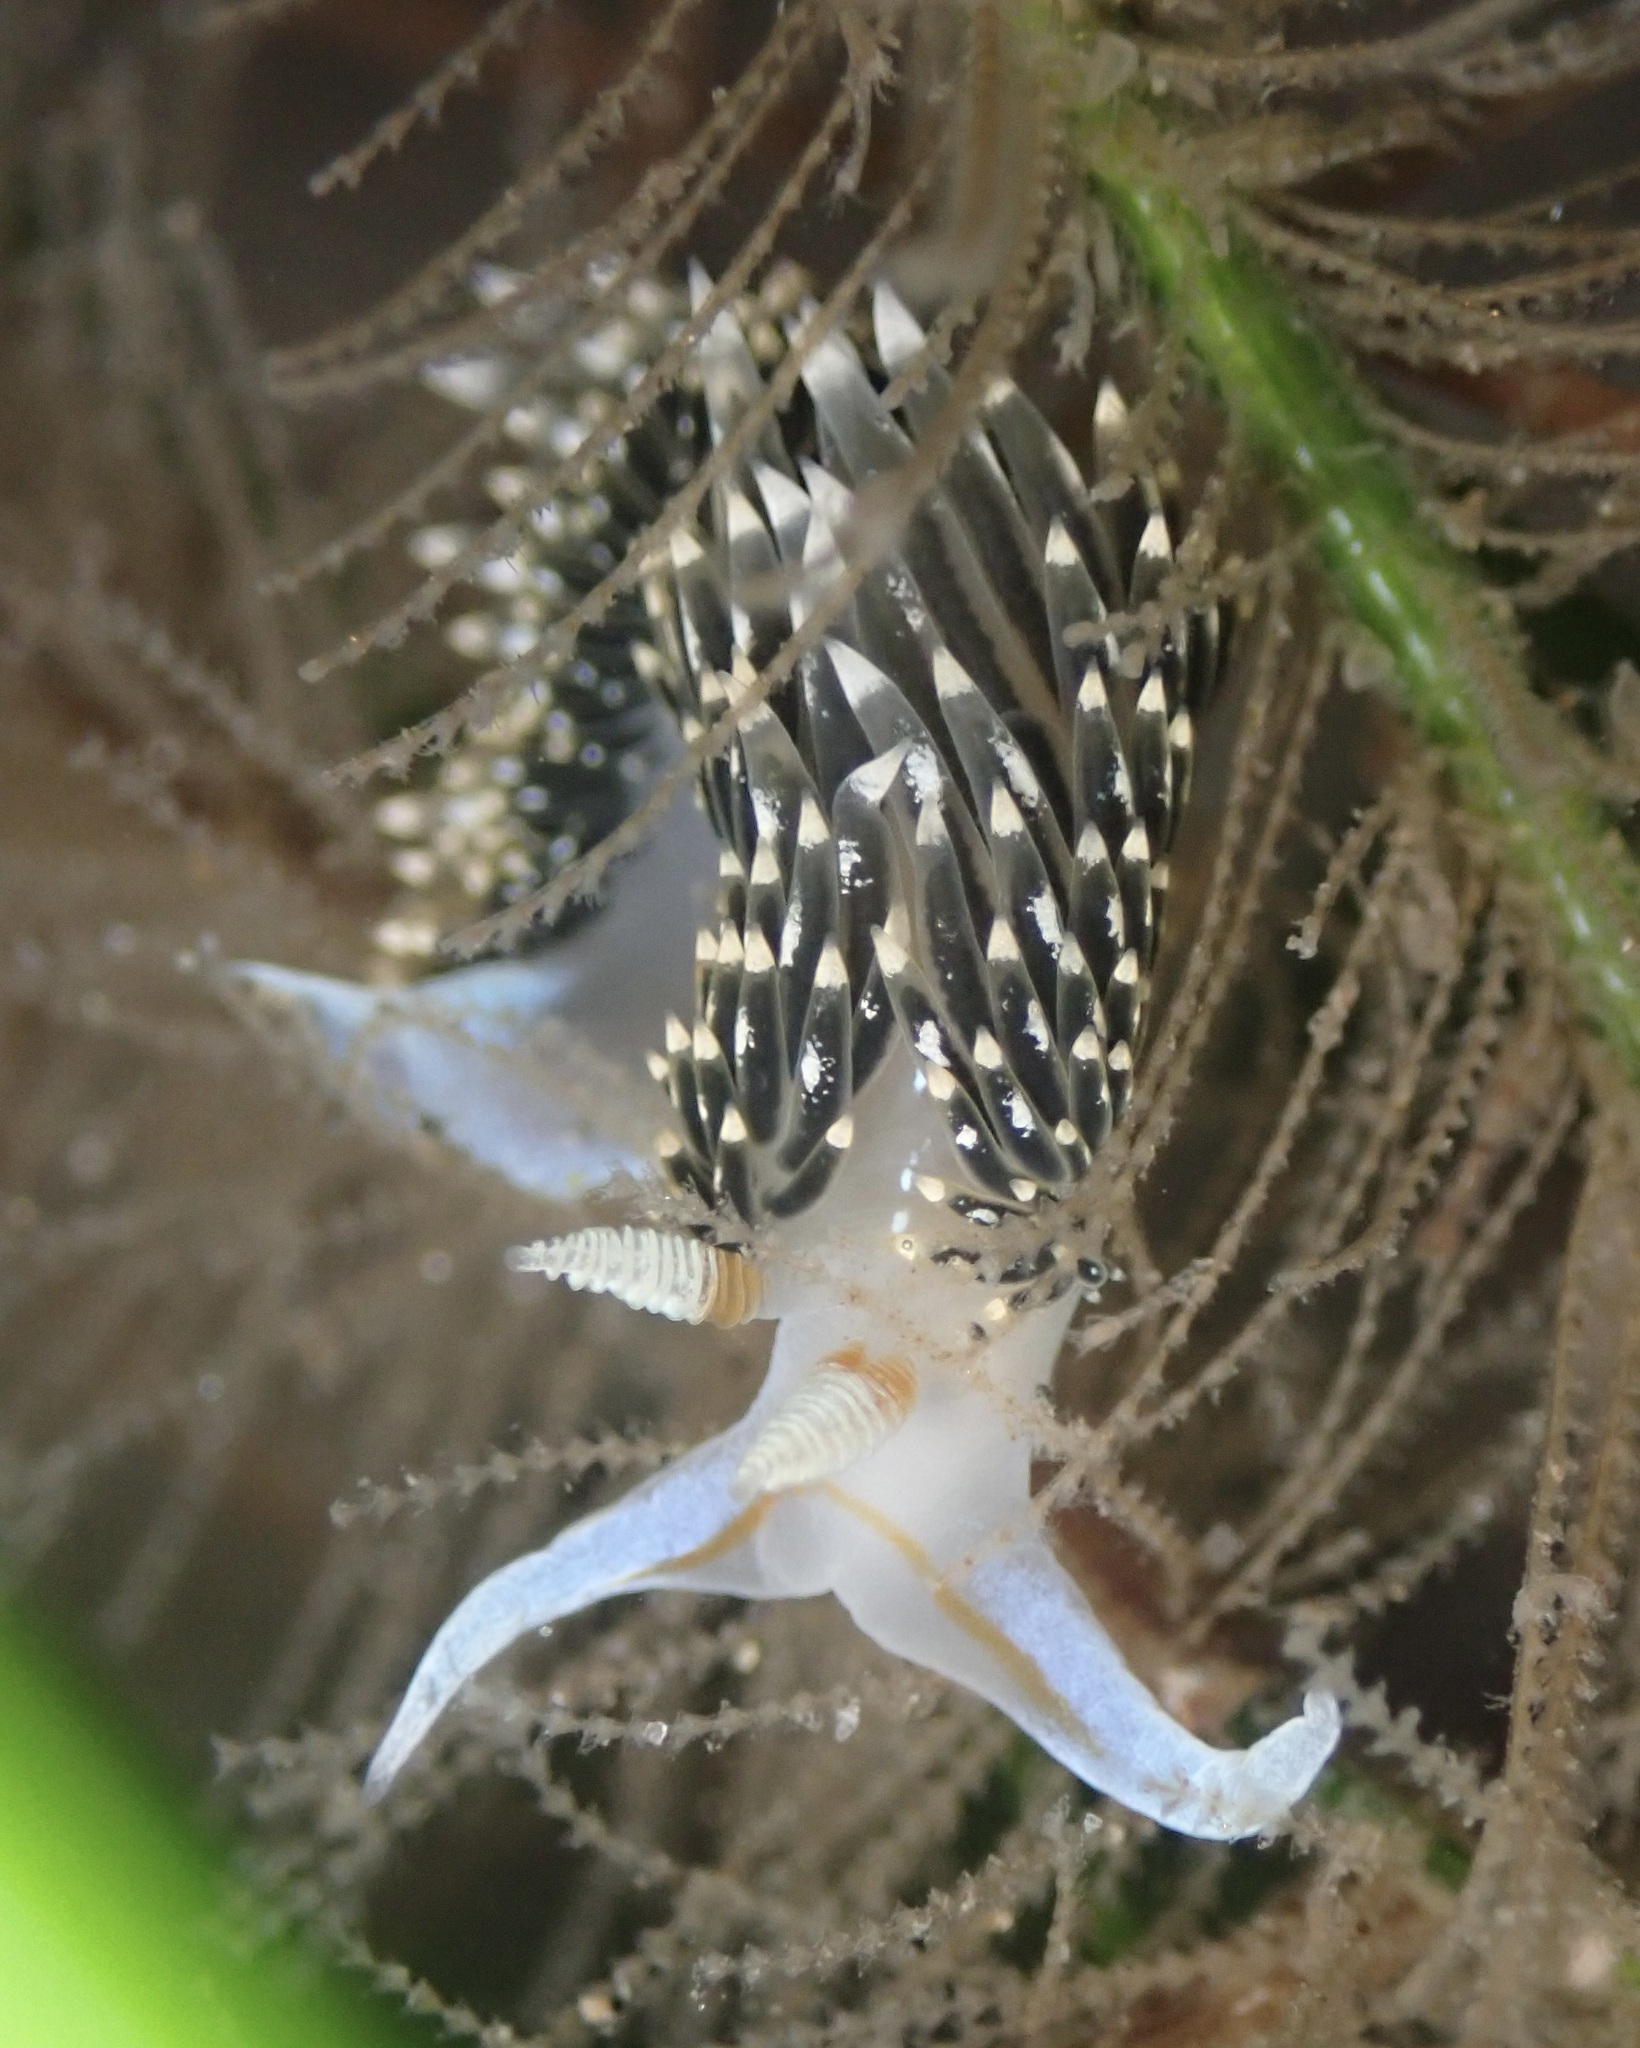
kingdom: Animalia
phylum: Mollusca
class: Gastropoda
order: Nudibranchia
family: Facelinidae
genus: Phidiana
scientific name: Phidiana hiltoni
